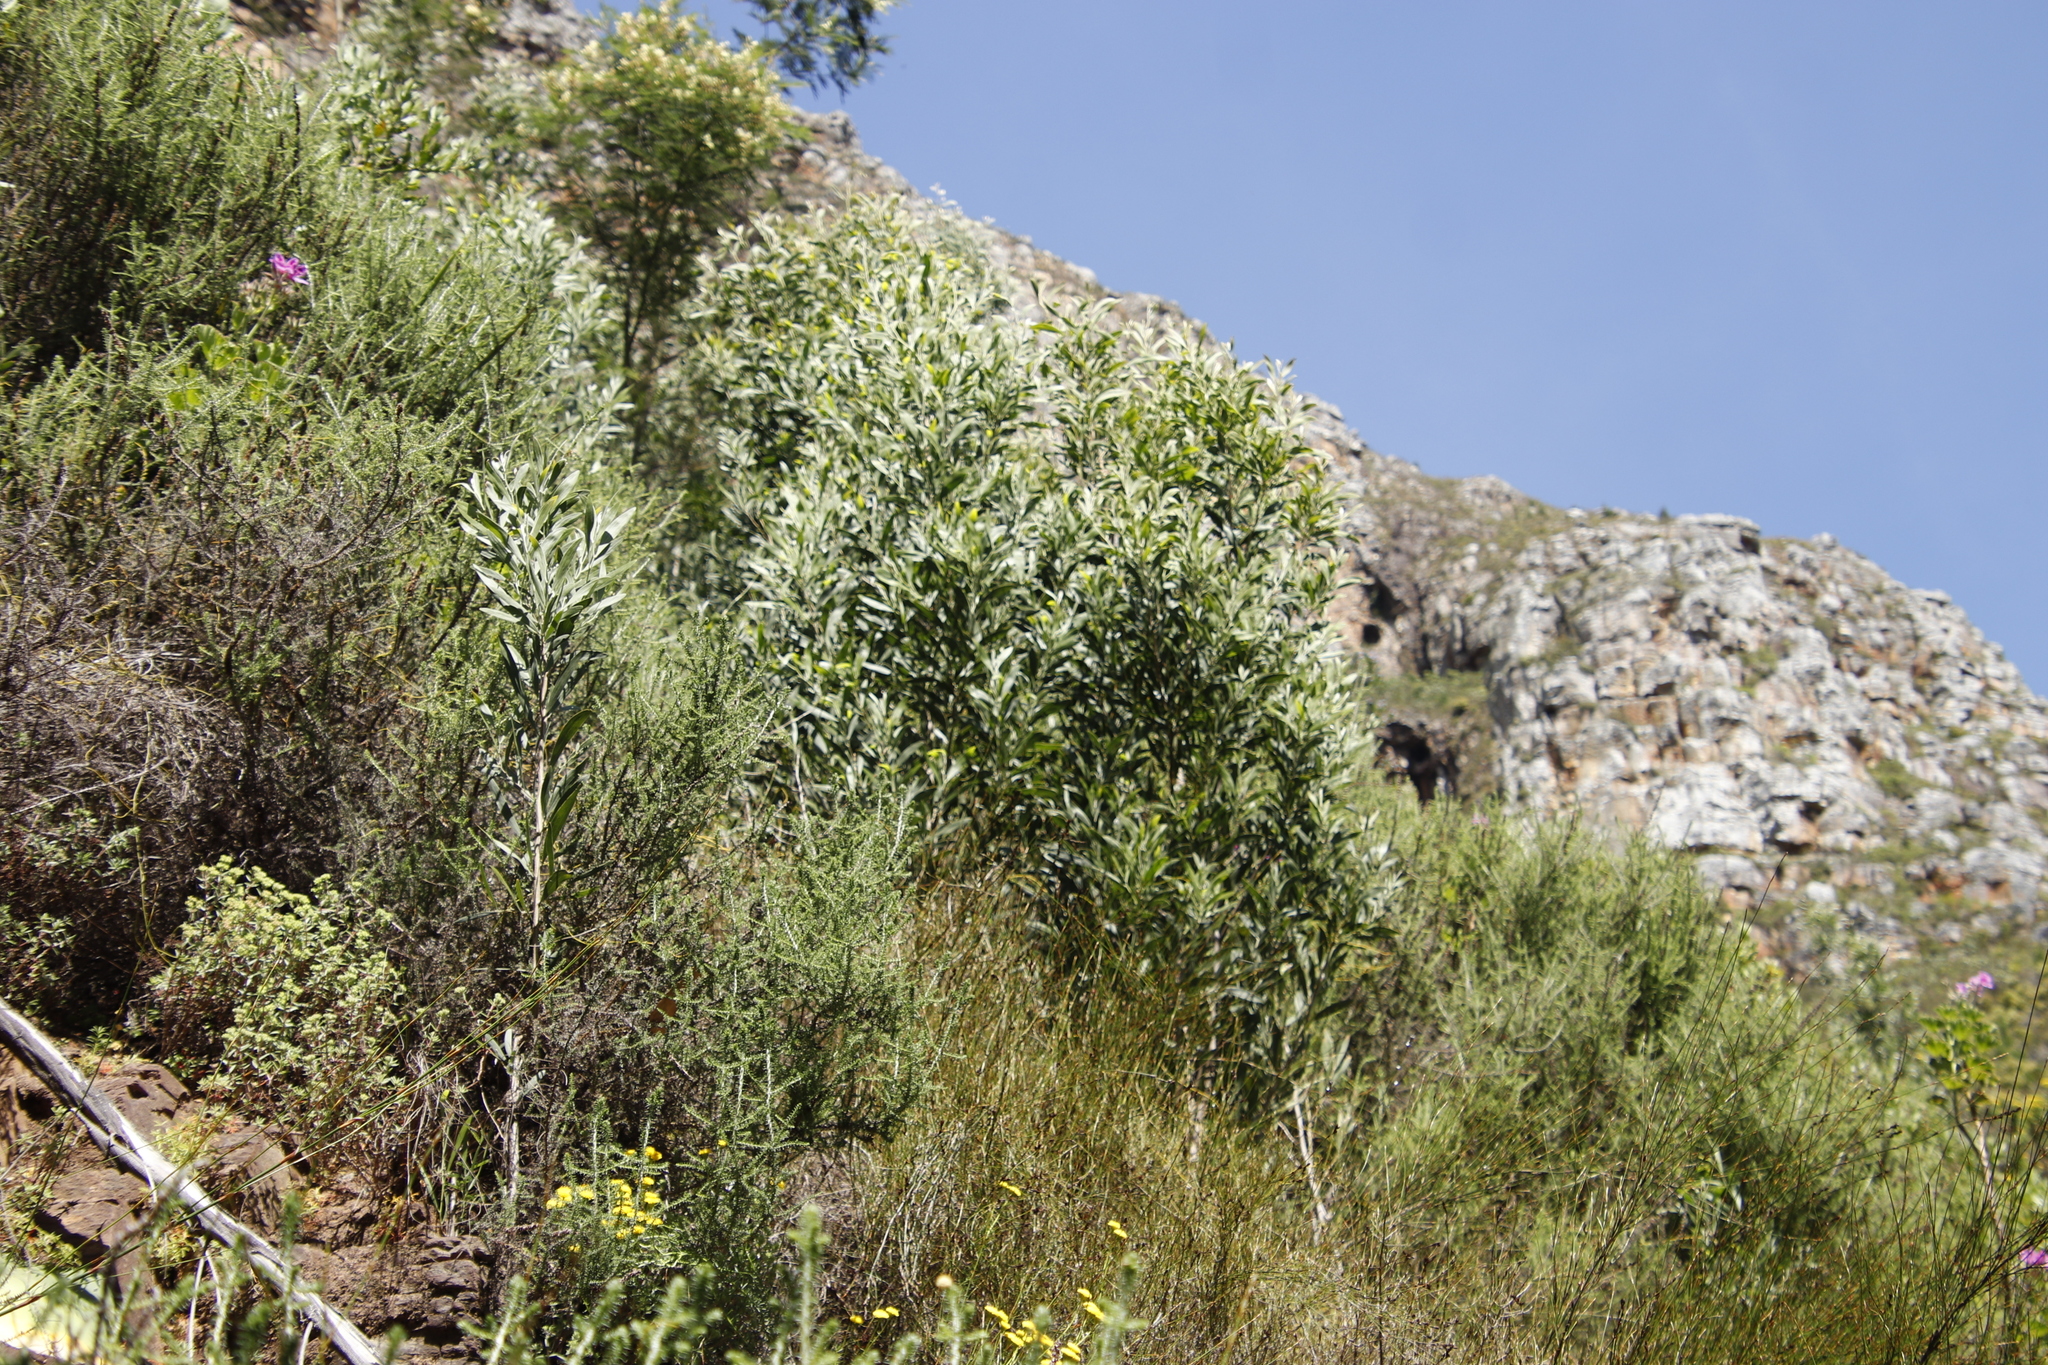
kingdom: Plantae
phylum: Tracheophyta
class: Magnoliopsida
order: Fabales
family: Fabaceae
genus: Acacia
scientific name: Acacia saligna
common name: Orange wattle
